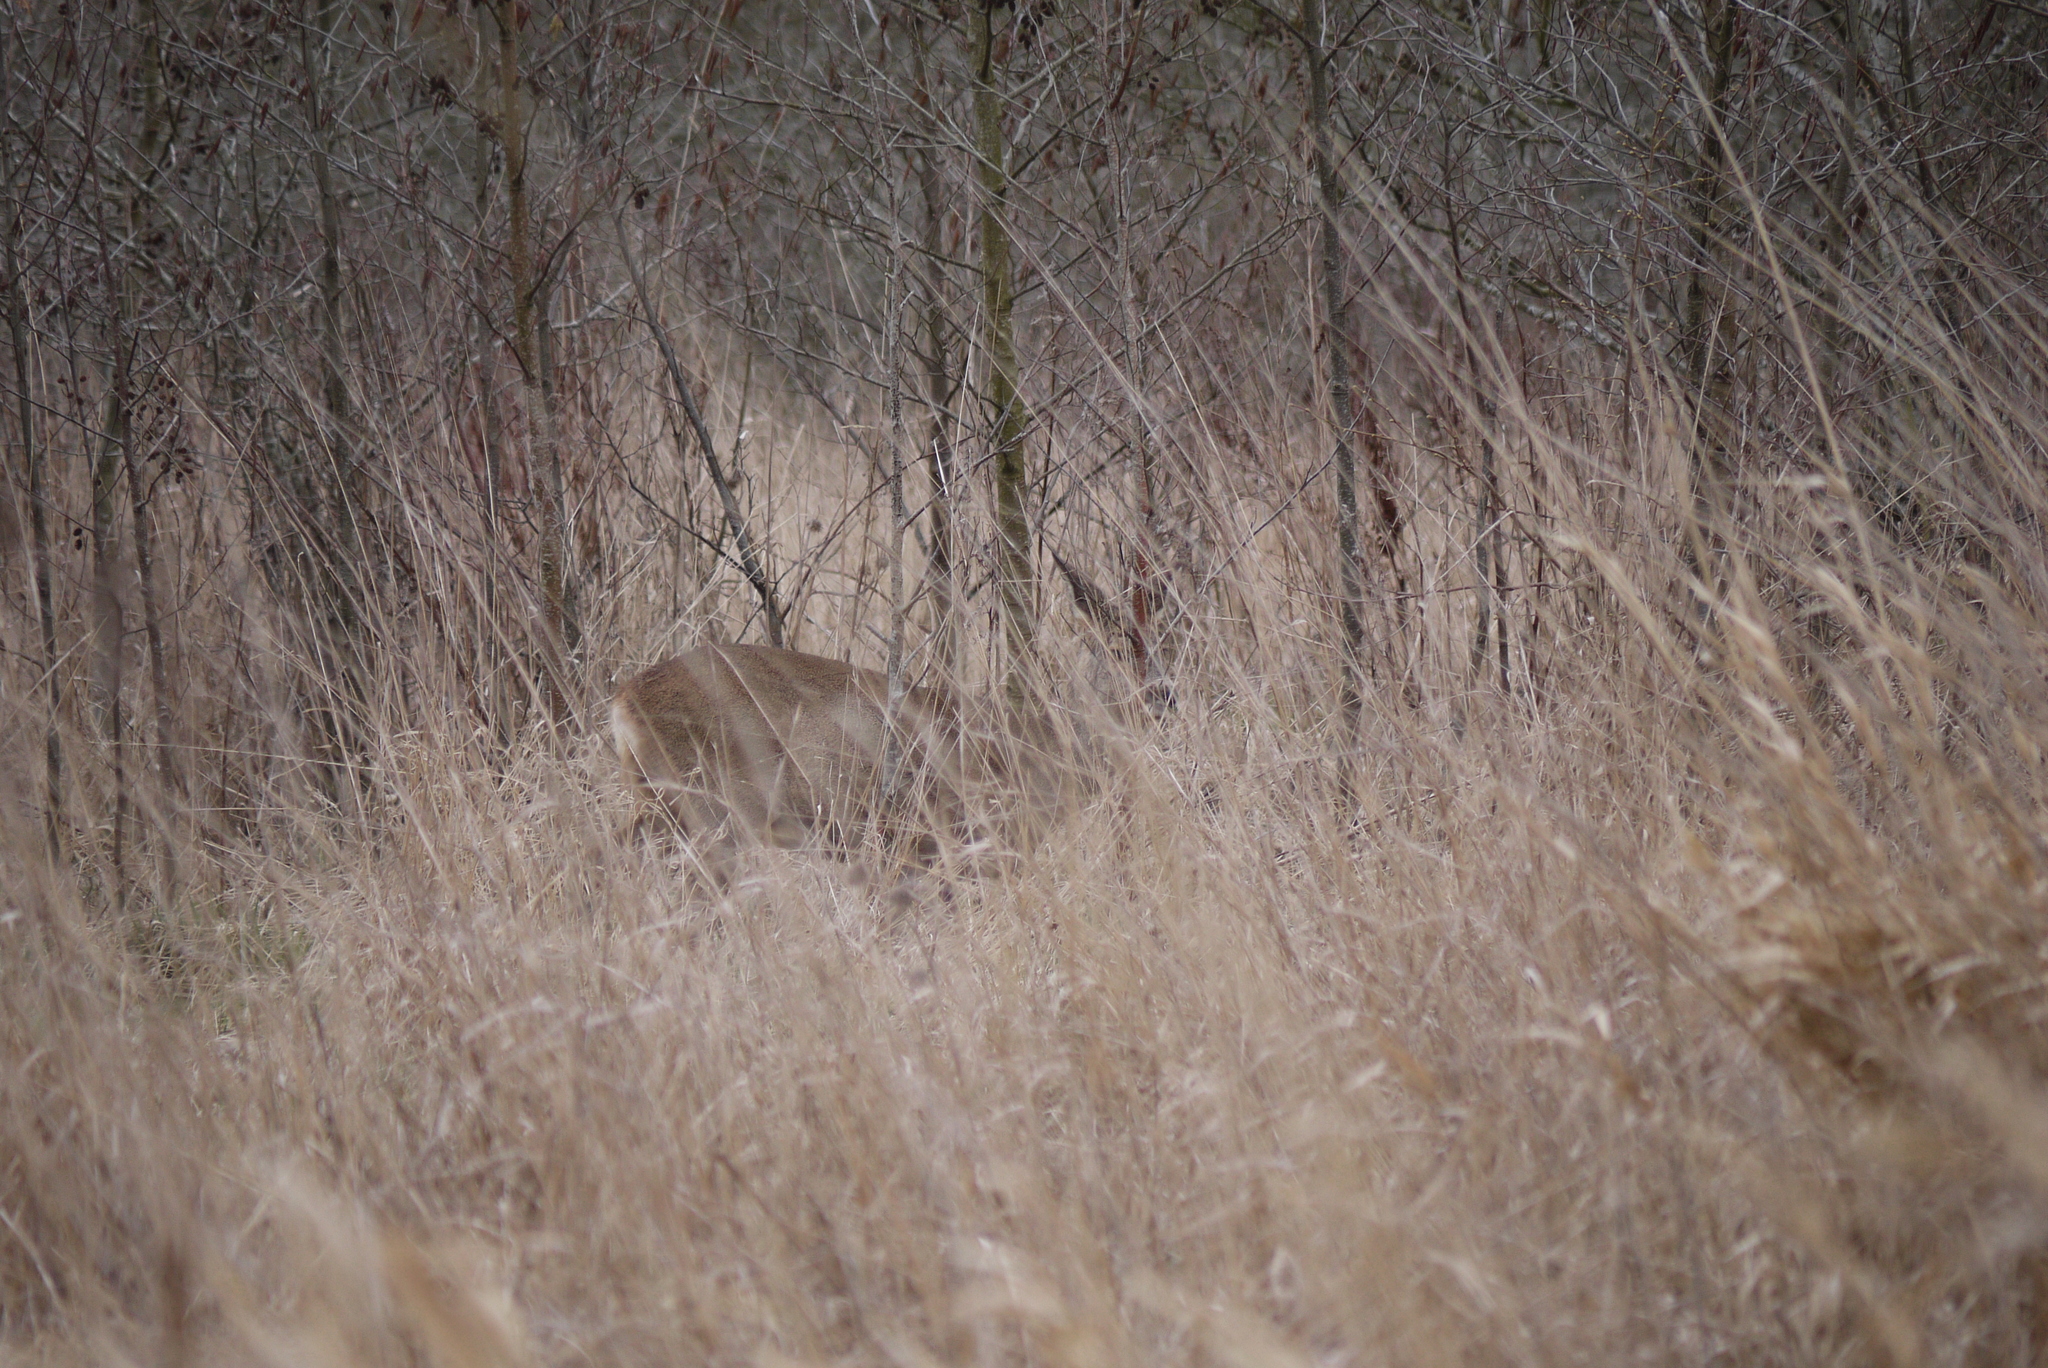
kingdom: Animalia
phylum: Chordata
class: Mammalia
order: Artiodactyla
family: Cervidae
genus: Capreolus
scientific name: Capreolus capreolus
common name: Western roe deer
